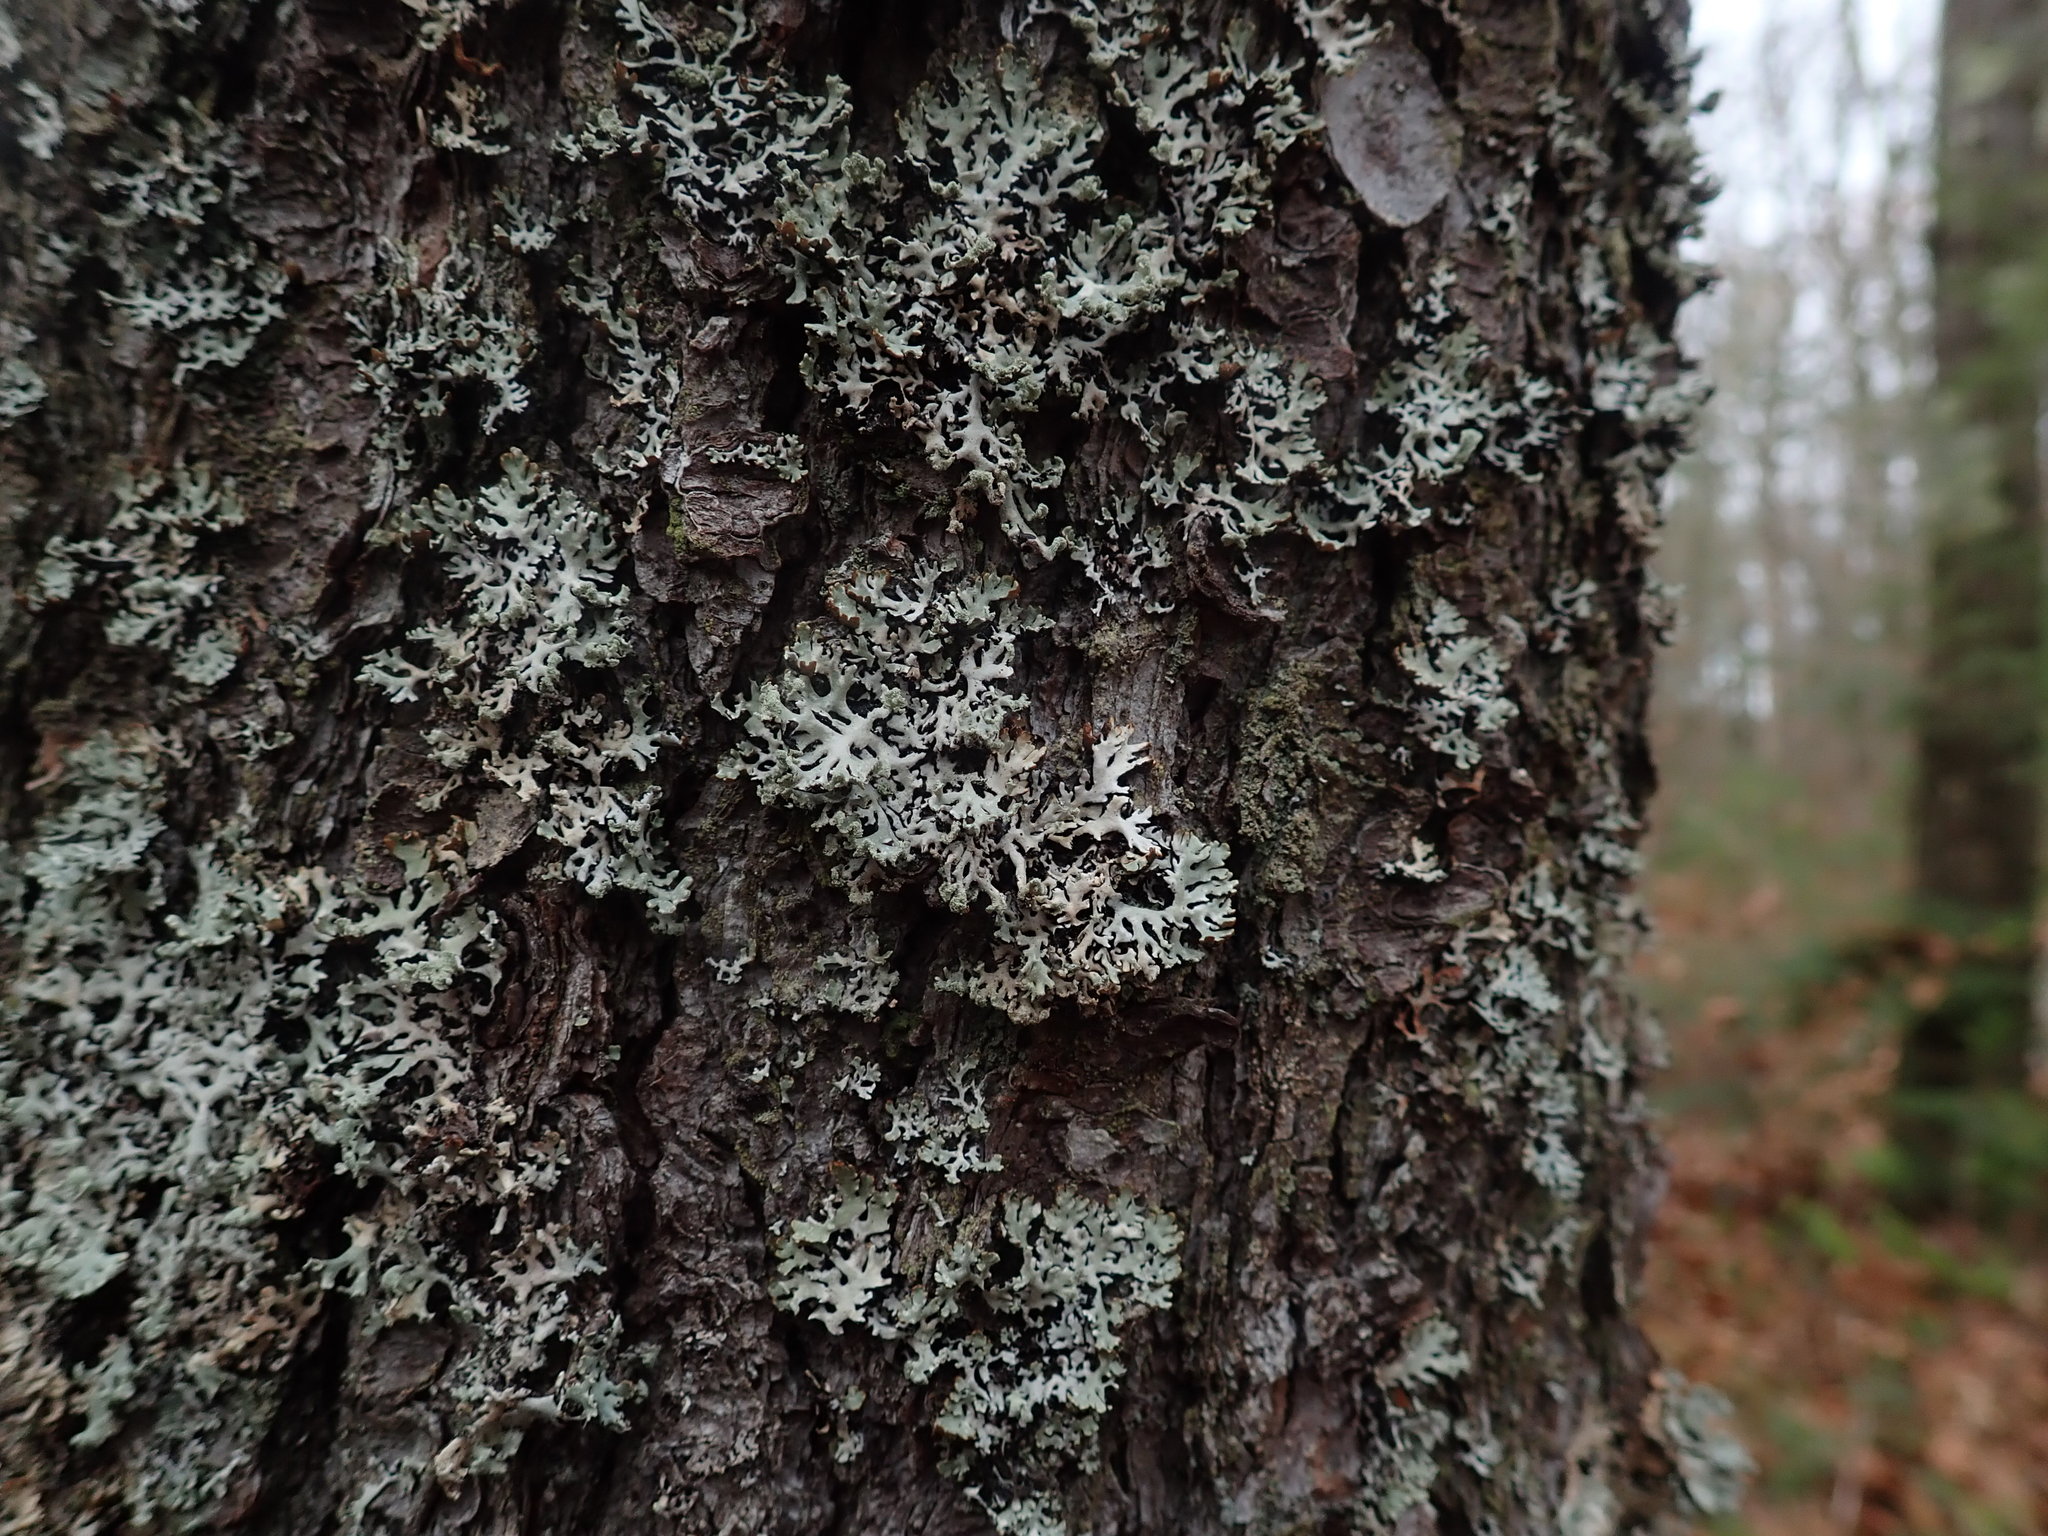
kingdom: Fungi
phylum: Ascomycota
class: Lecanoromycetes
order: Lecanorales
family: Parmeliaceae
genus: Hypogymnia
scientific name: Hypogymnia physodes
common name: Dark crottle
